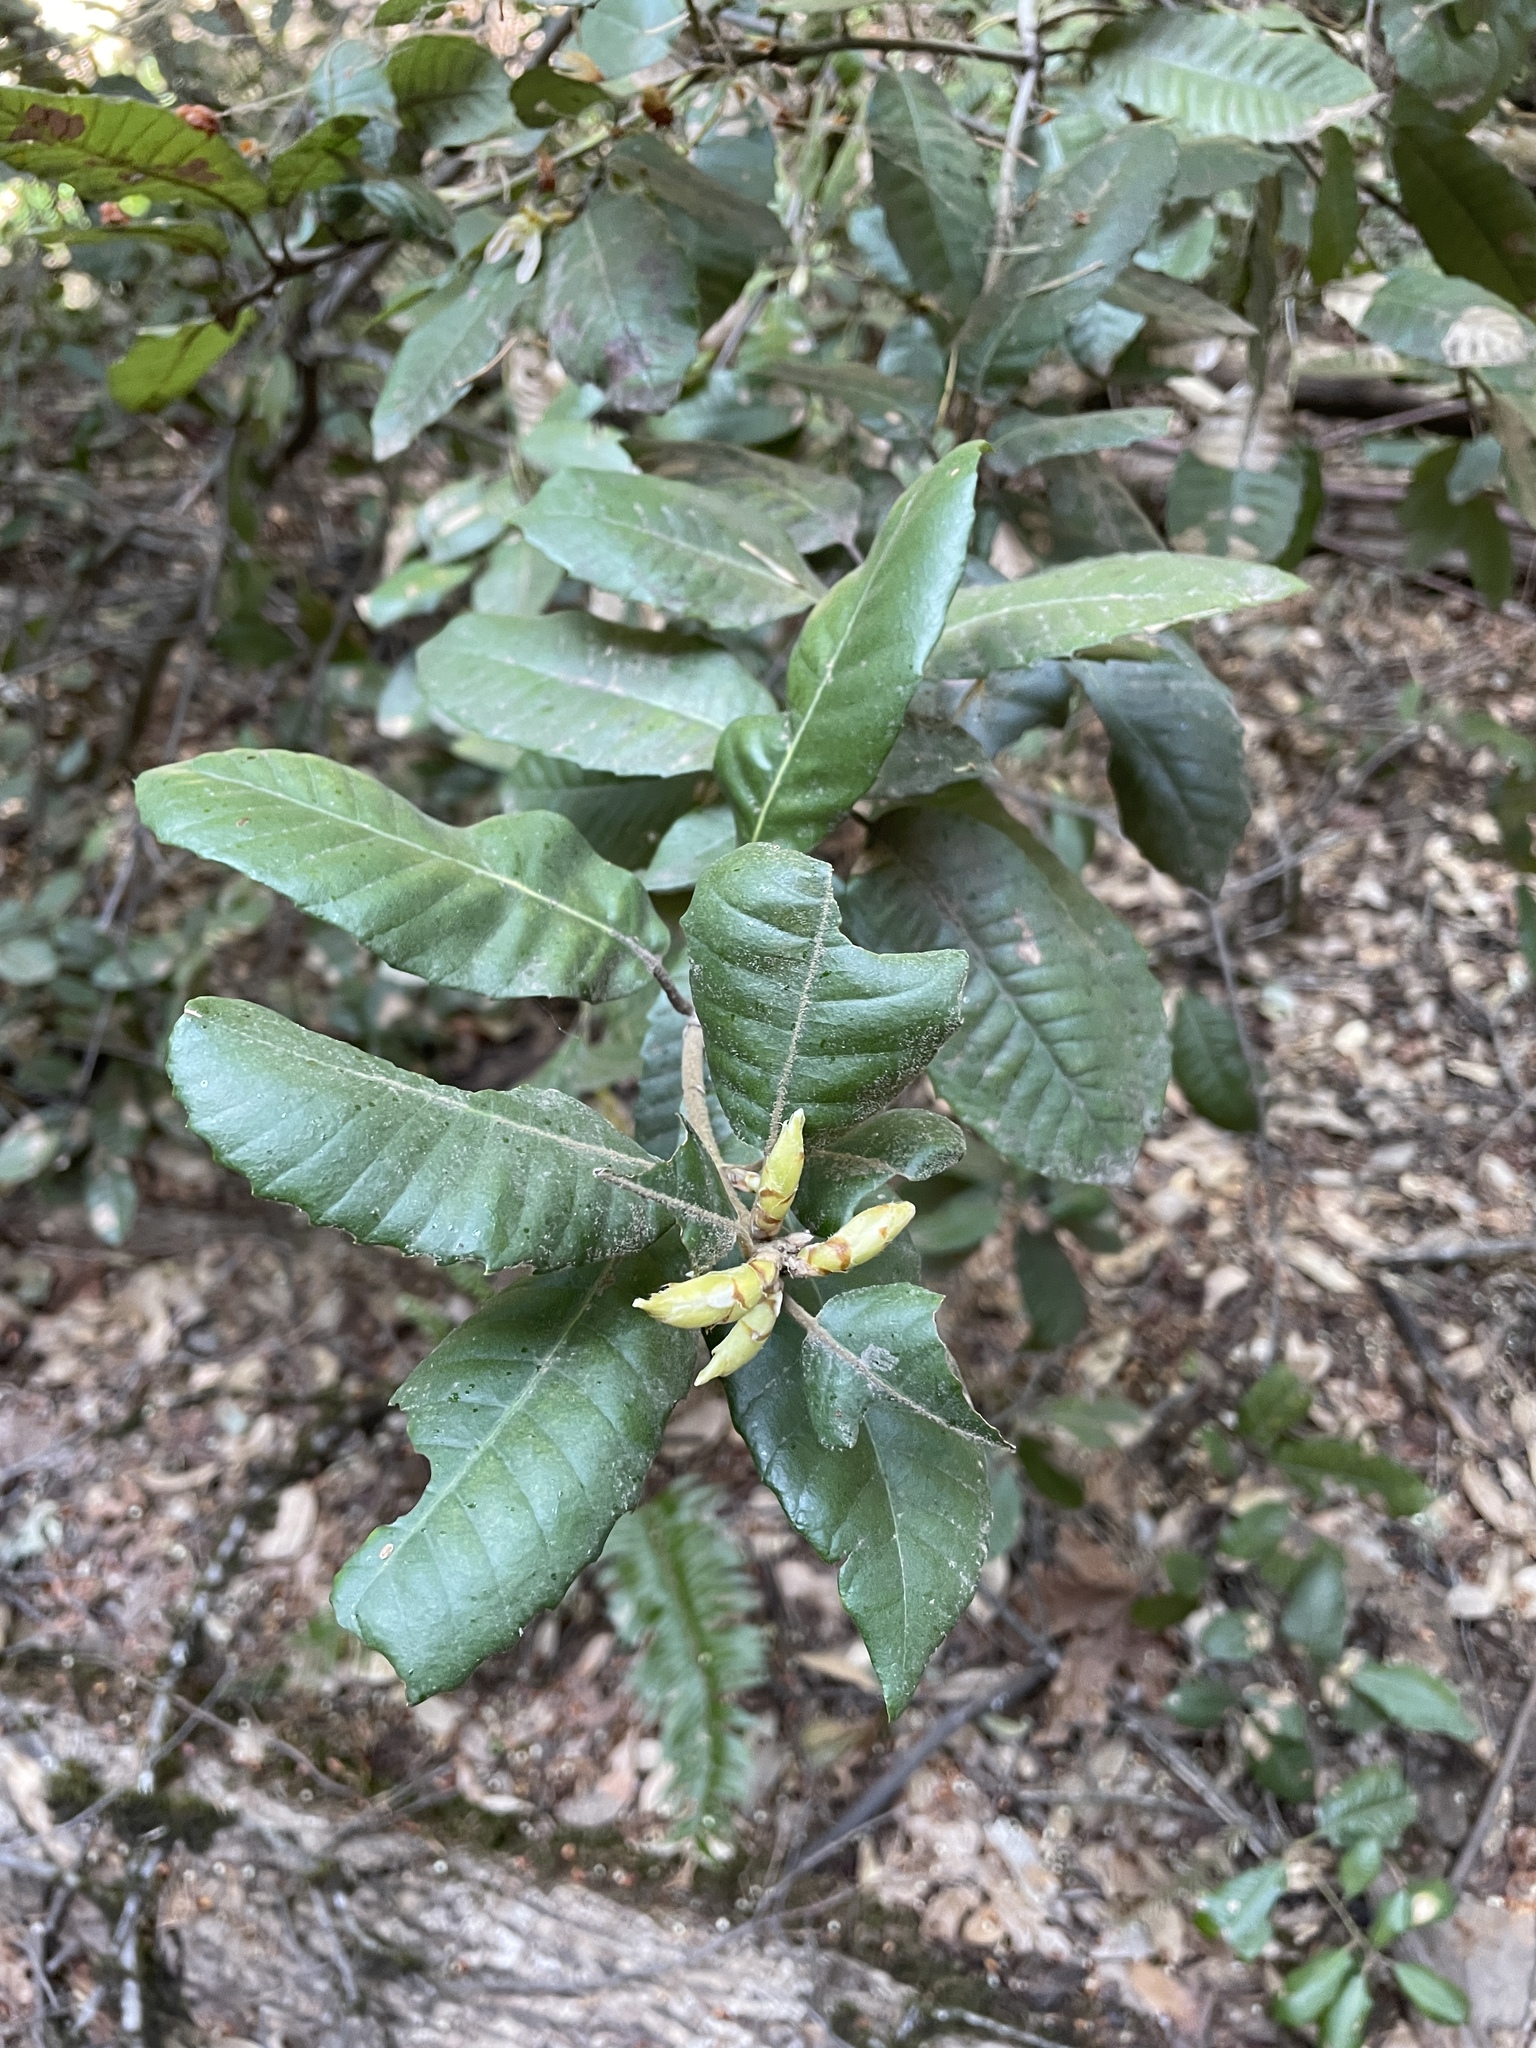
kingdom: Plantae
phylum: Tracheophyta
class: Magnoliopsida
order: Fagales
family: Fagaceae
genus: Notholithocarpus
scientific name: Notholithocarpus densiflorus
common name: Tan bark oak
